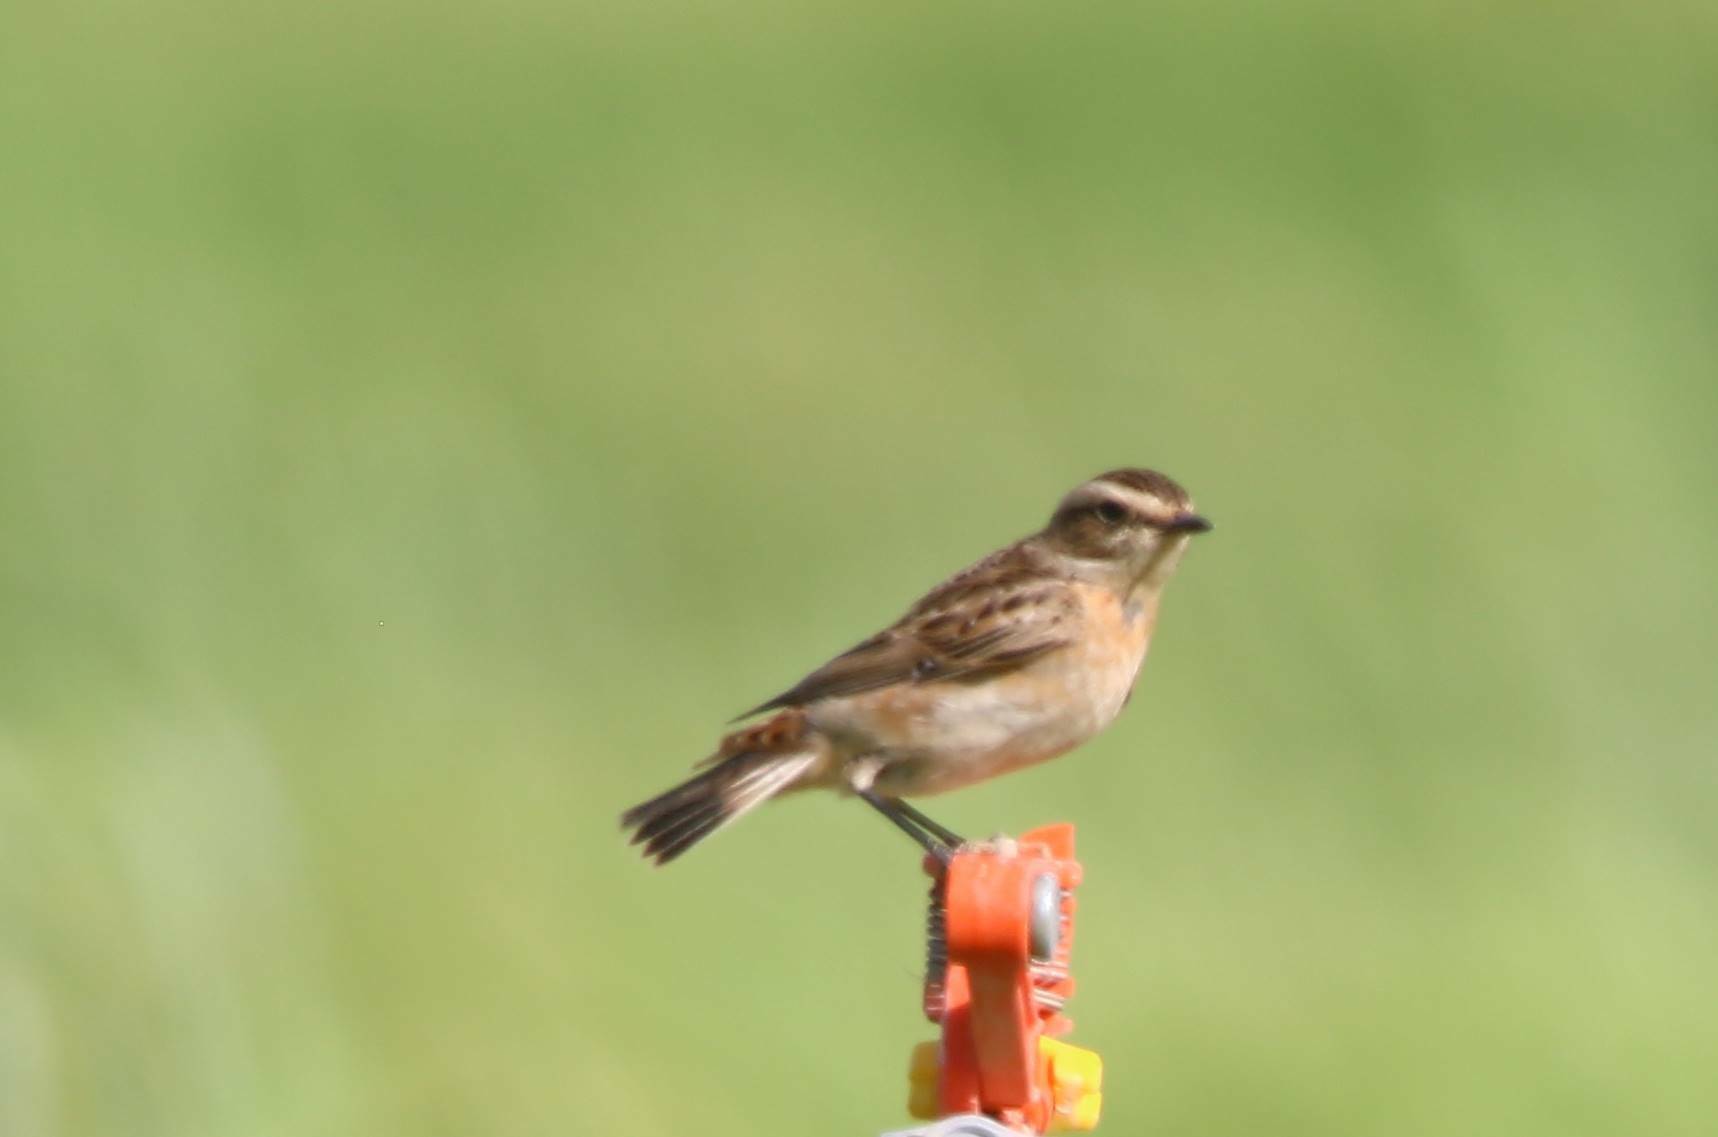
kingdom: Animalia
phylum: Chordata
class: Aves
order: Passeriformes
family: Muscicapidae
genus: Saxicola
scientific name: Saxicola rubetra
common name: Whinchat
